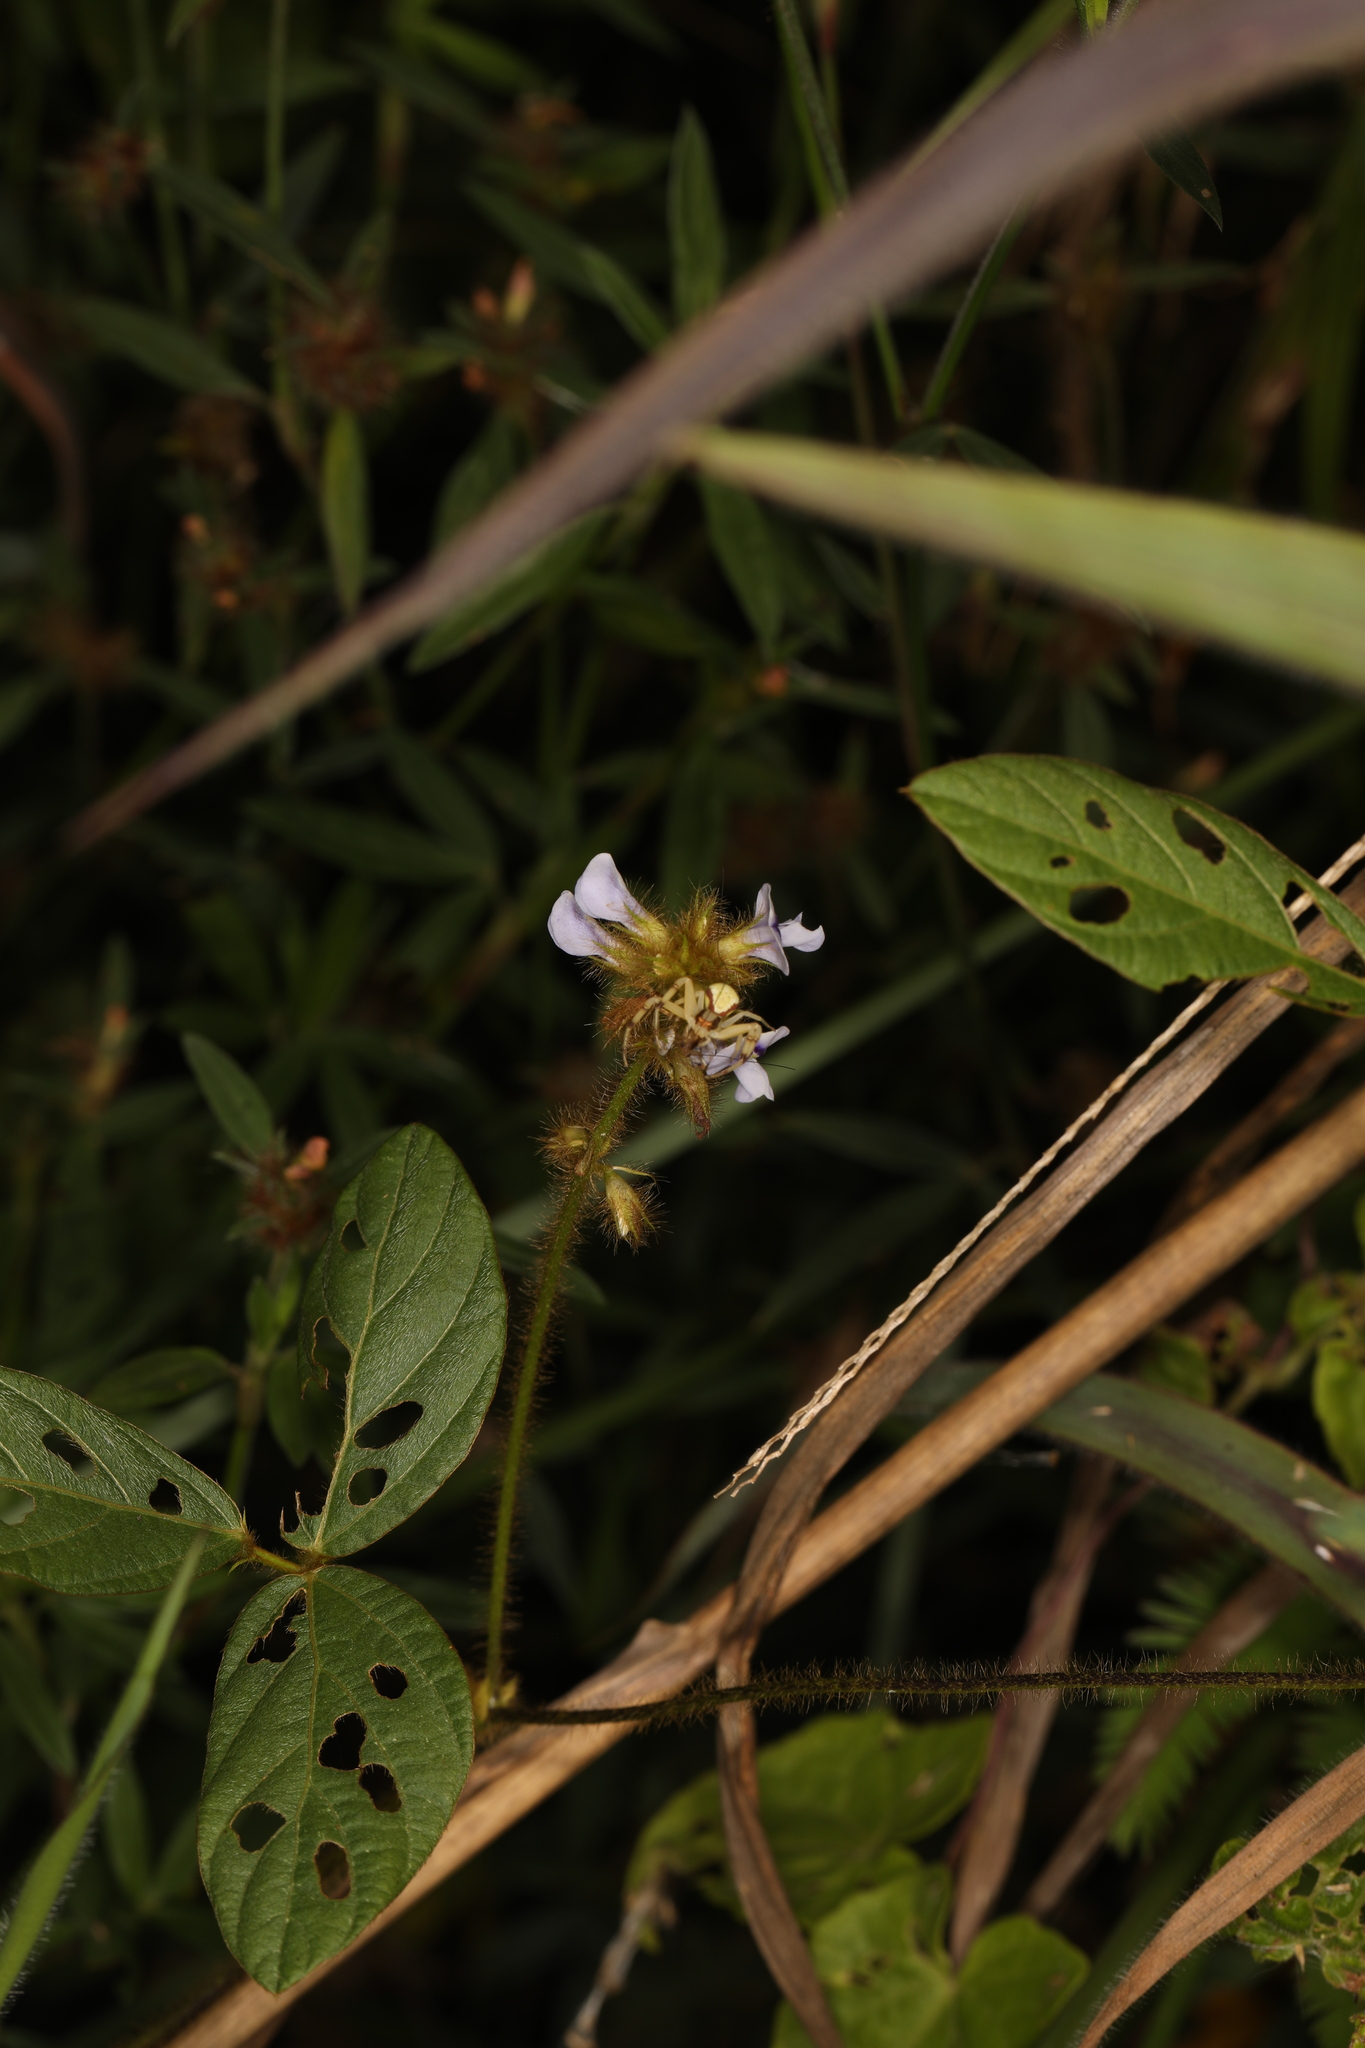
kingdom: Plantae
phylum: Tracheophyta
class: Magnoliopsida
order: Fabales
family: Fabaceae
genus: Calopogonium
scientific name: Calopogonium mucunoides
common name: Calopo
